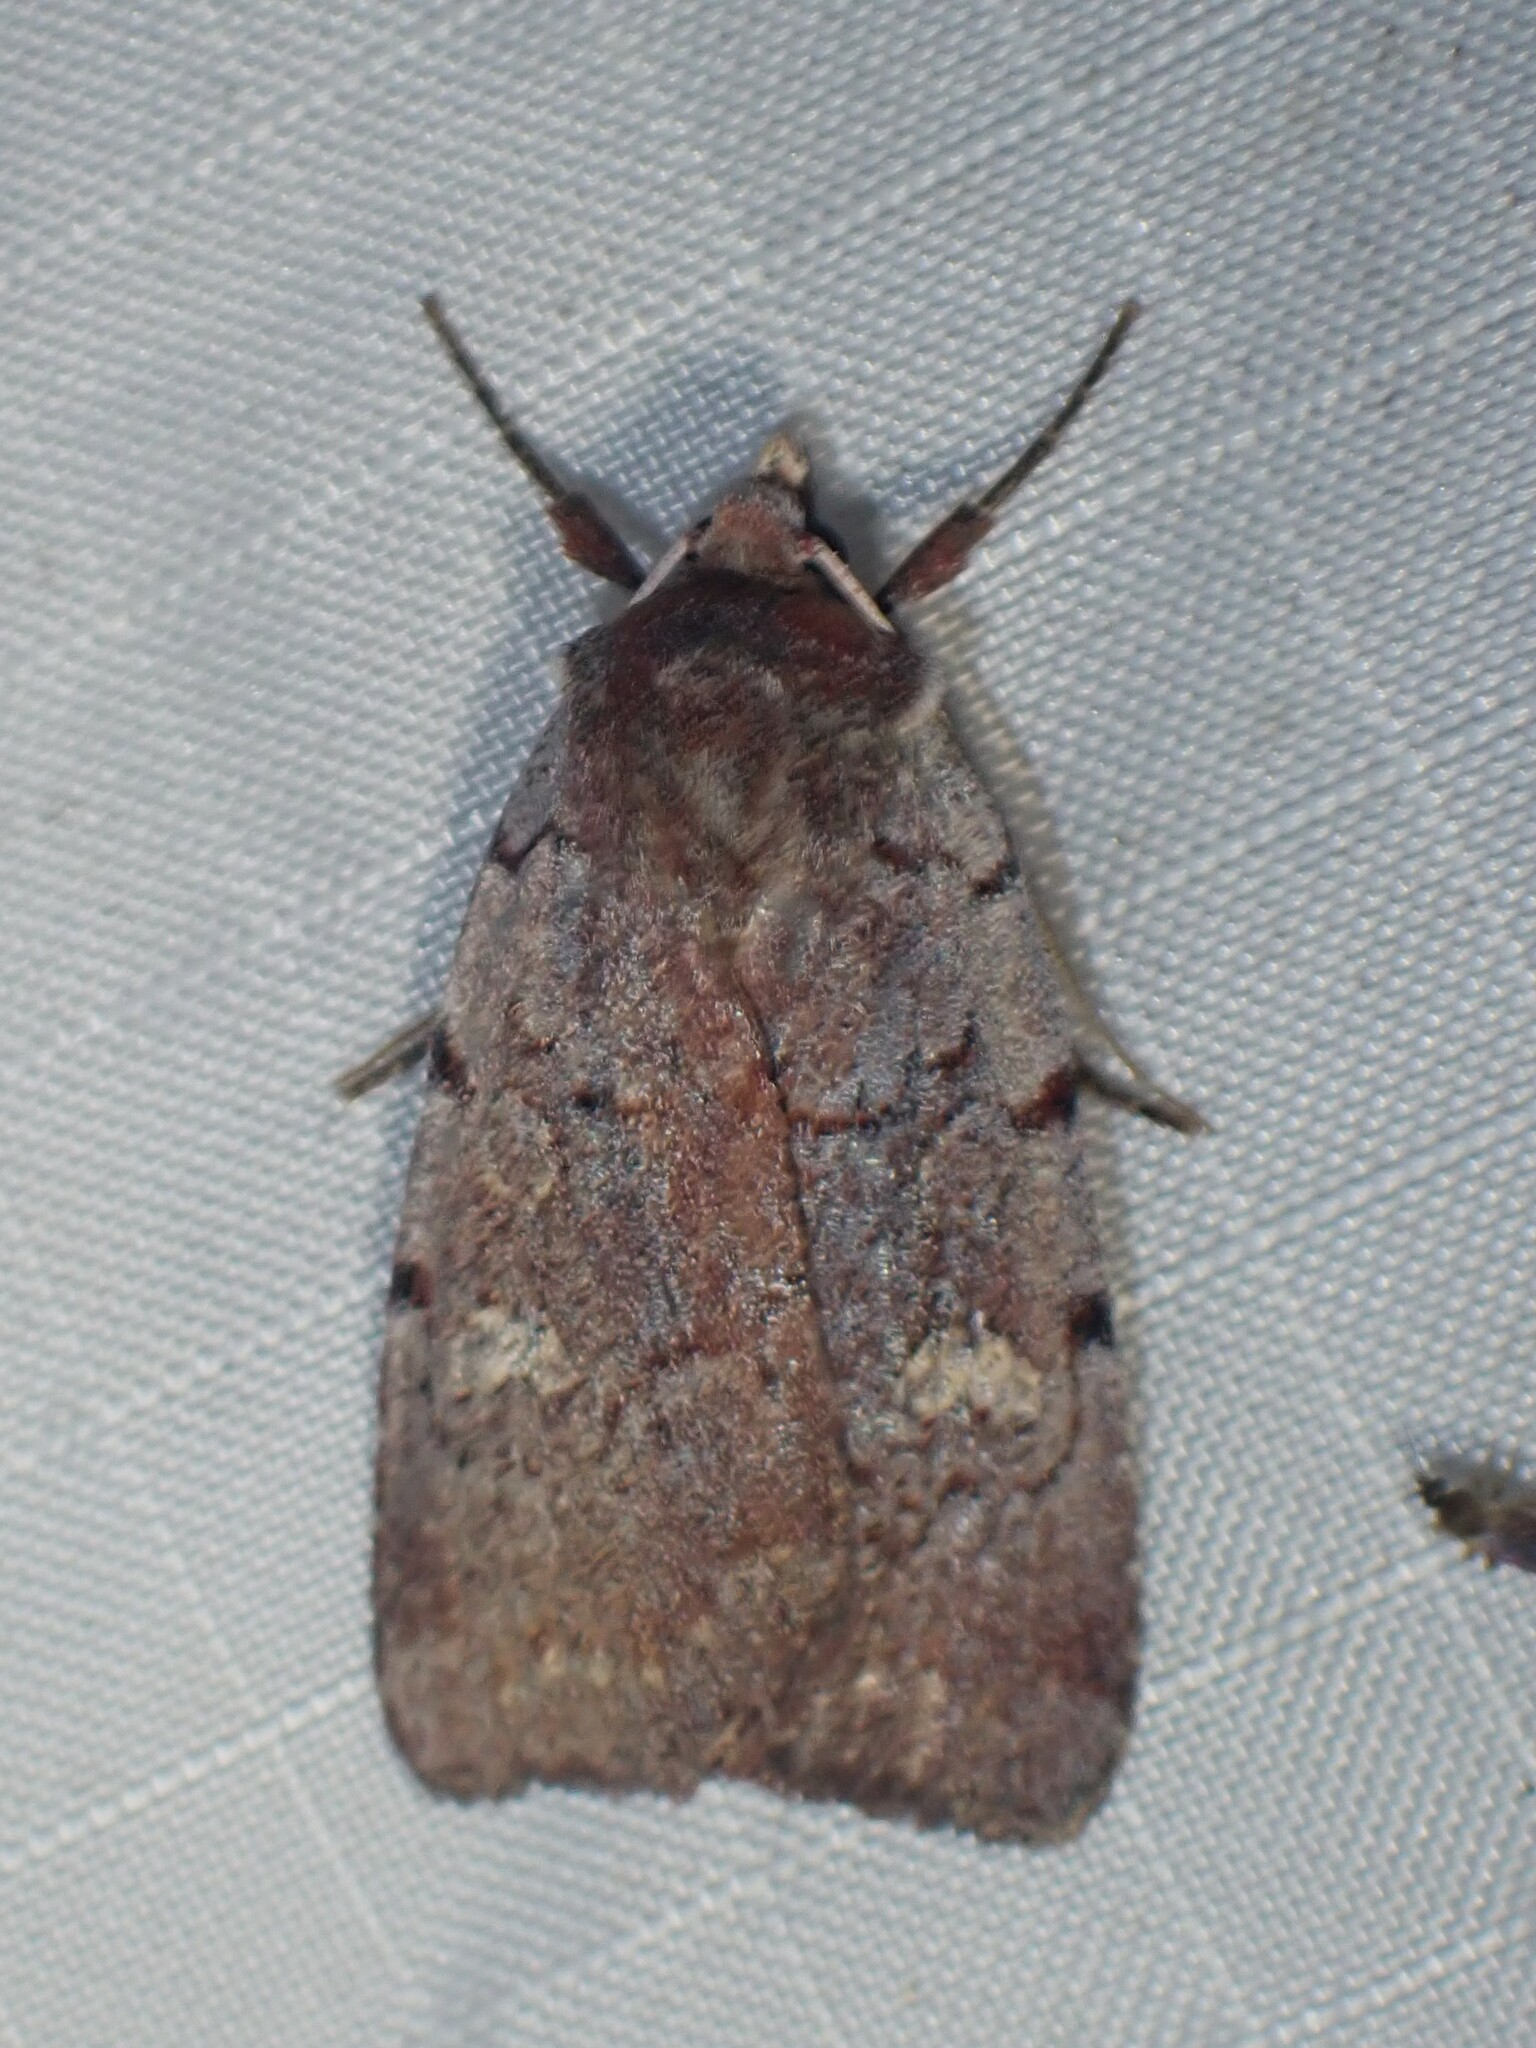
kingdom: Animalia
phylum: Arthropoda
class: Insecta
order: Lepidoptera
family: Noctuidae
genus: Xestia
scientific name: Xestia dilucida
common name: Dull reddish dart
